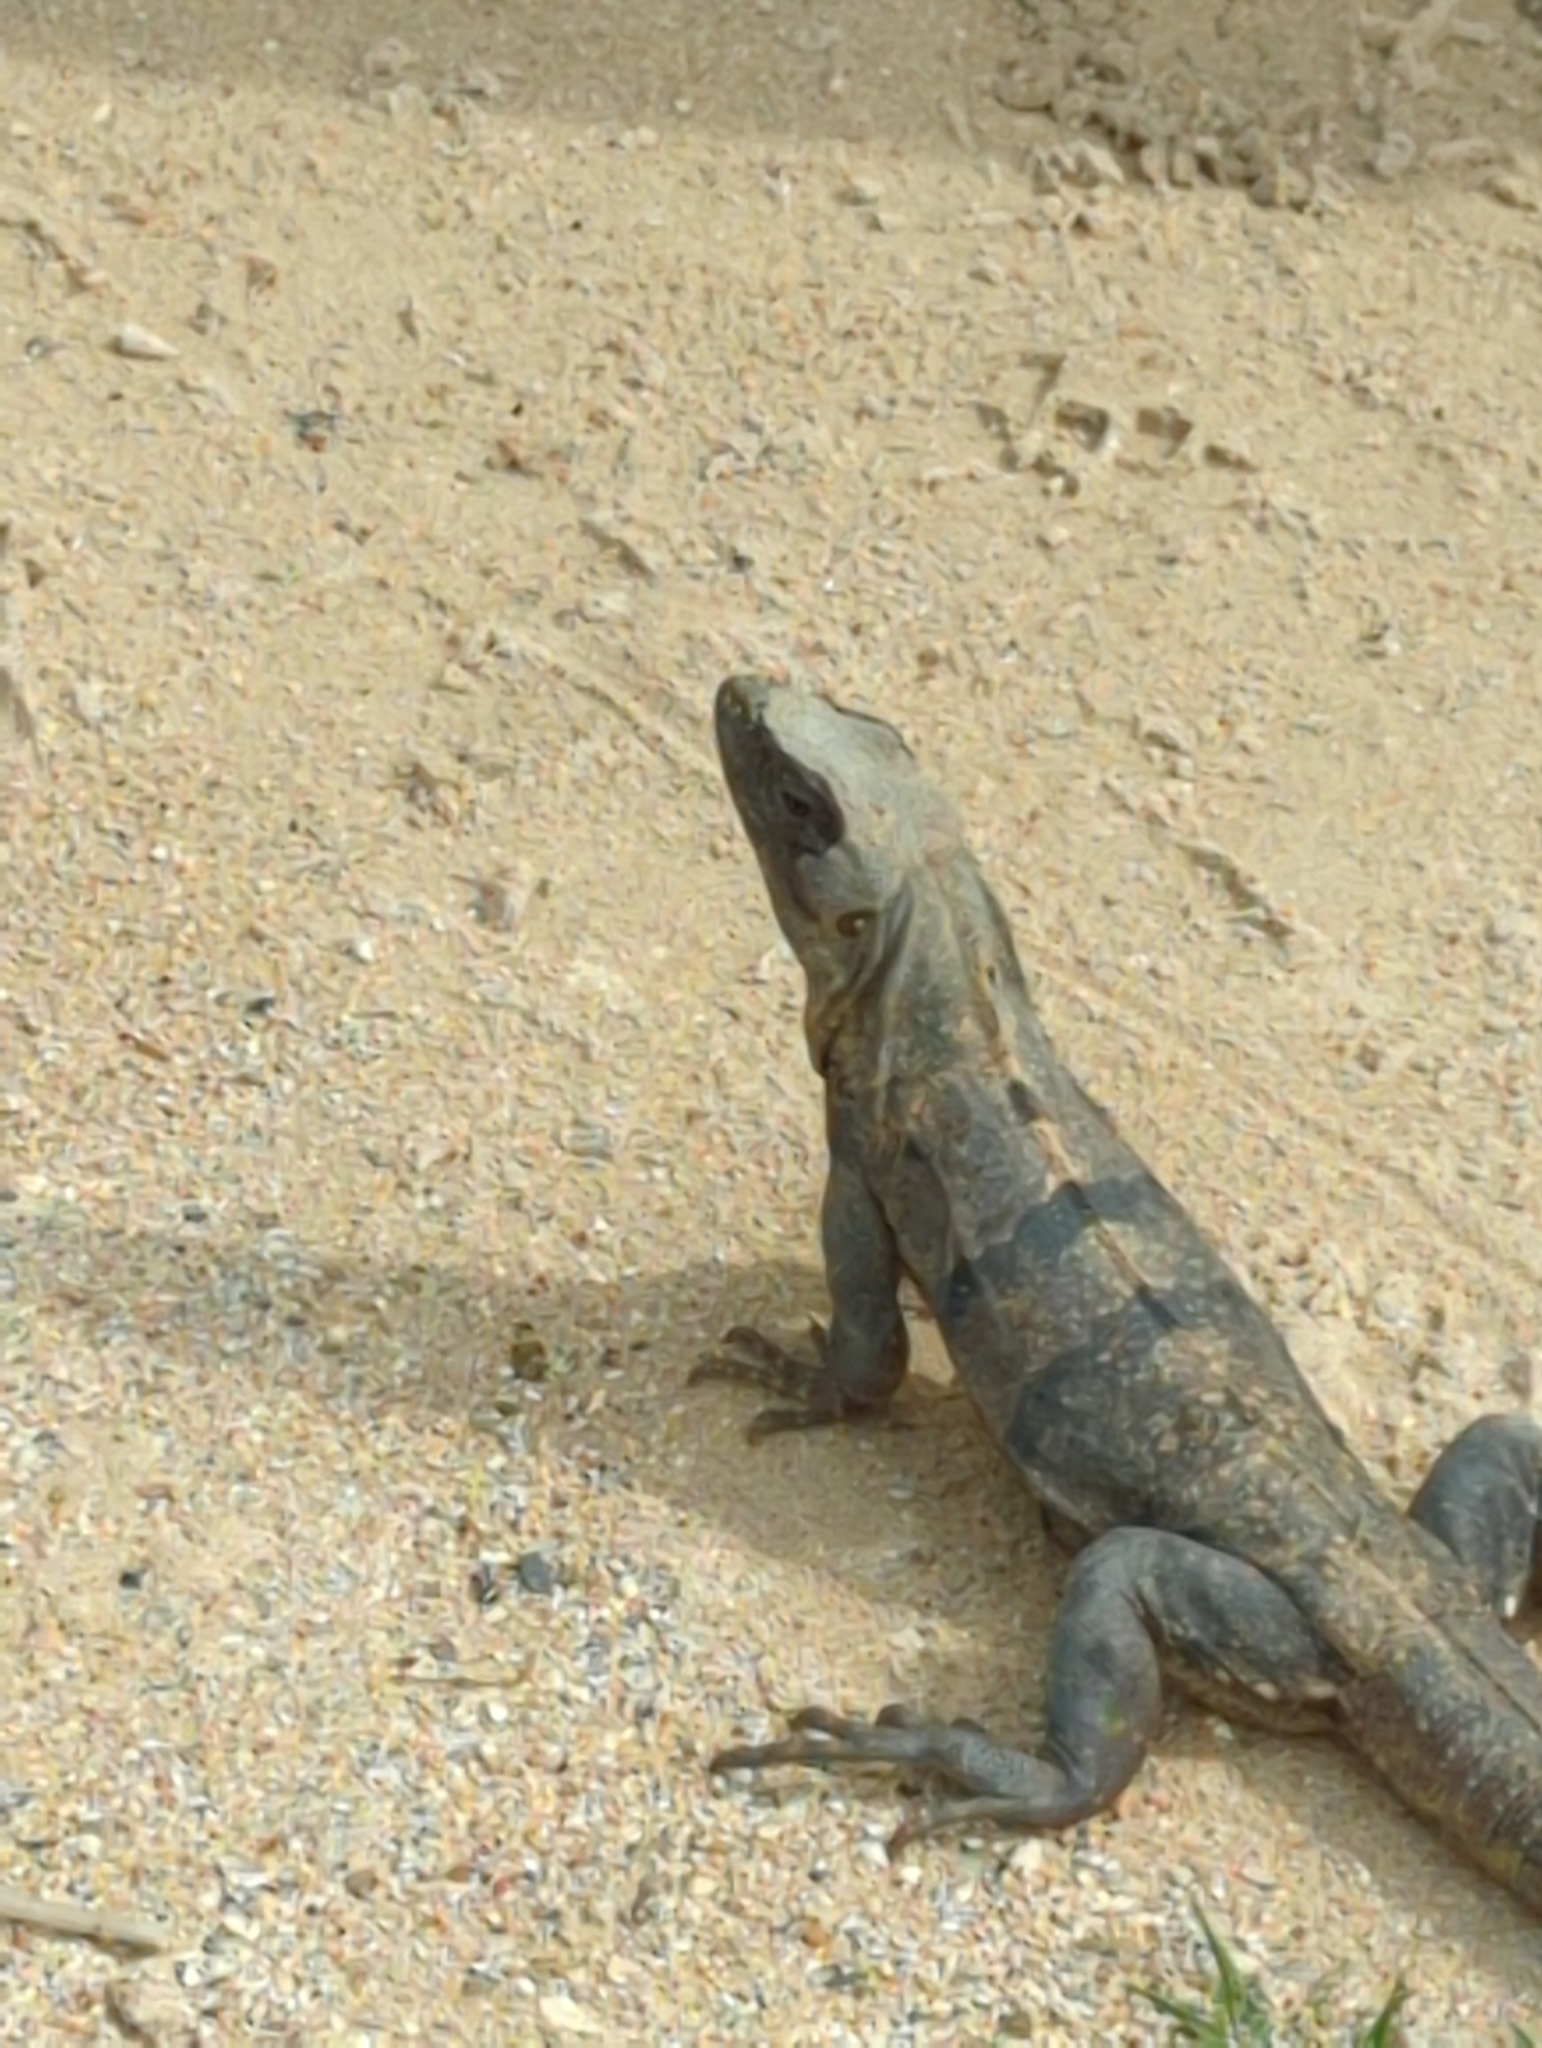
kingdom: Animalia
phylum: Chordata
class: Squamata
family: Iguanidae
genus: Ctenosaura
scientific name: Ctenosaura similis
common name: Black spiny-tailed iguana
